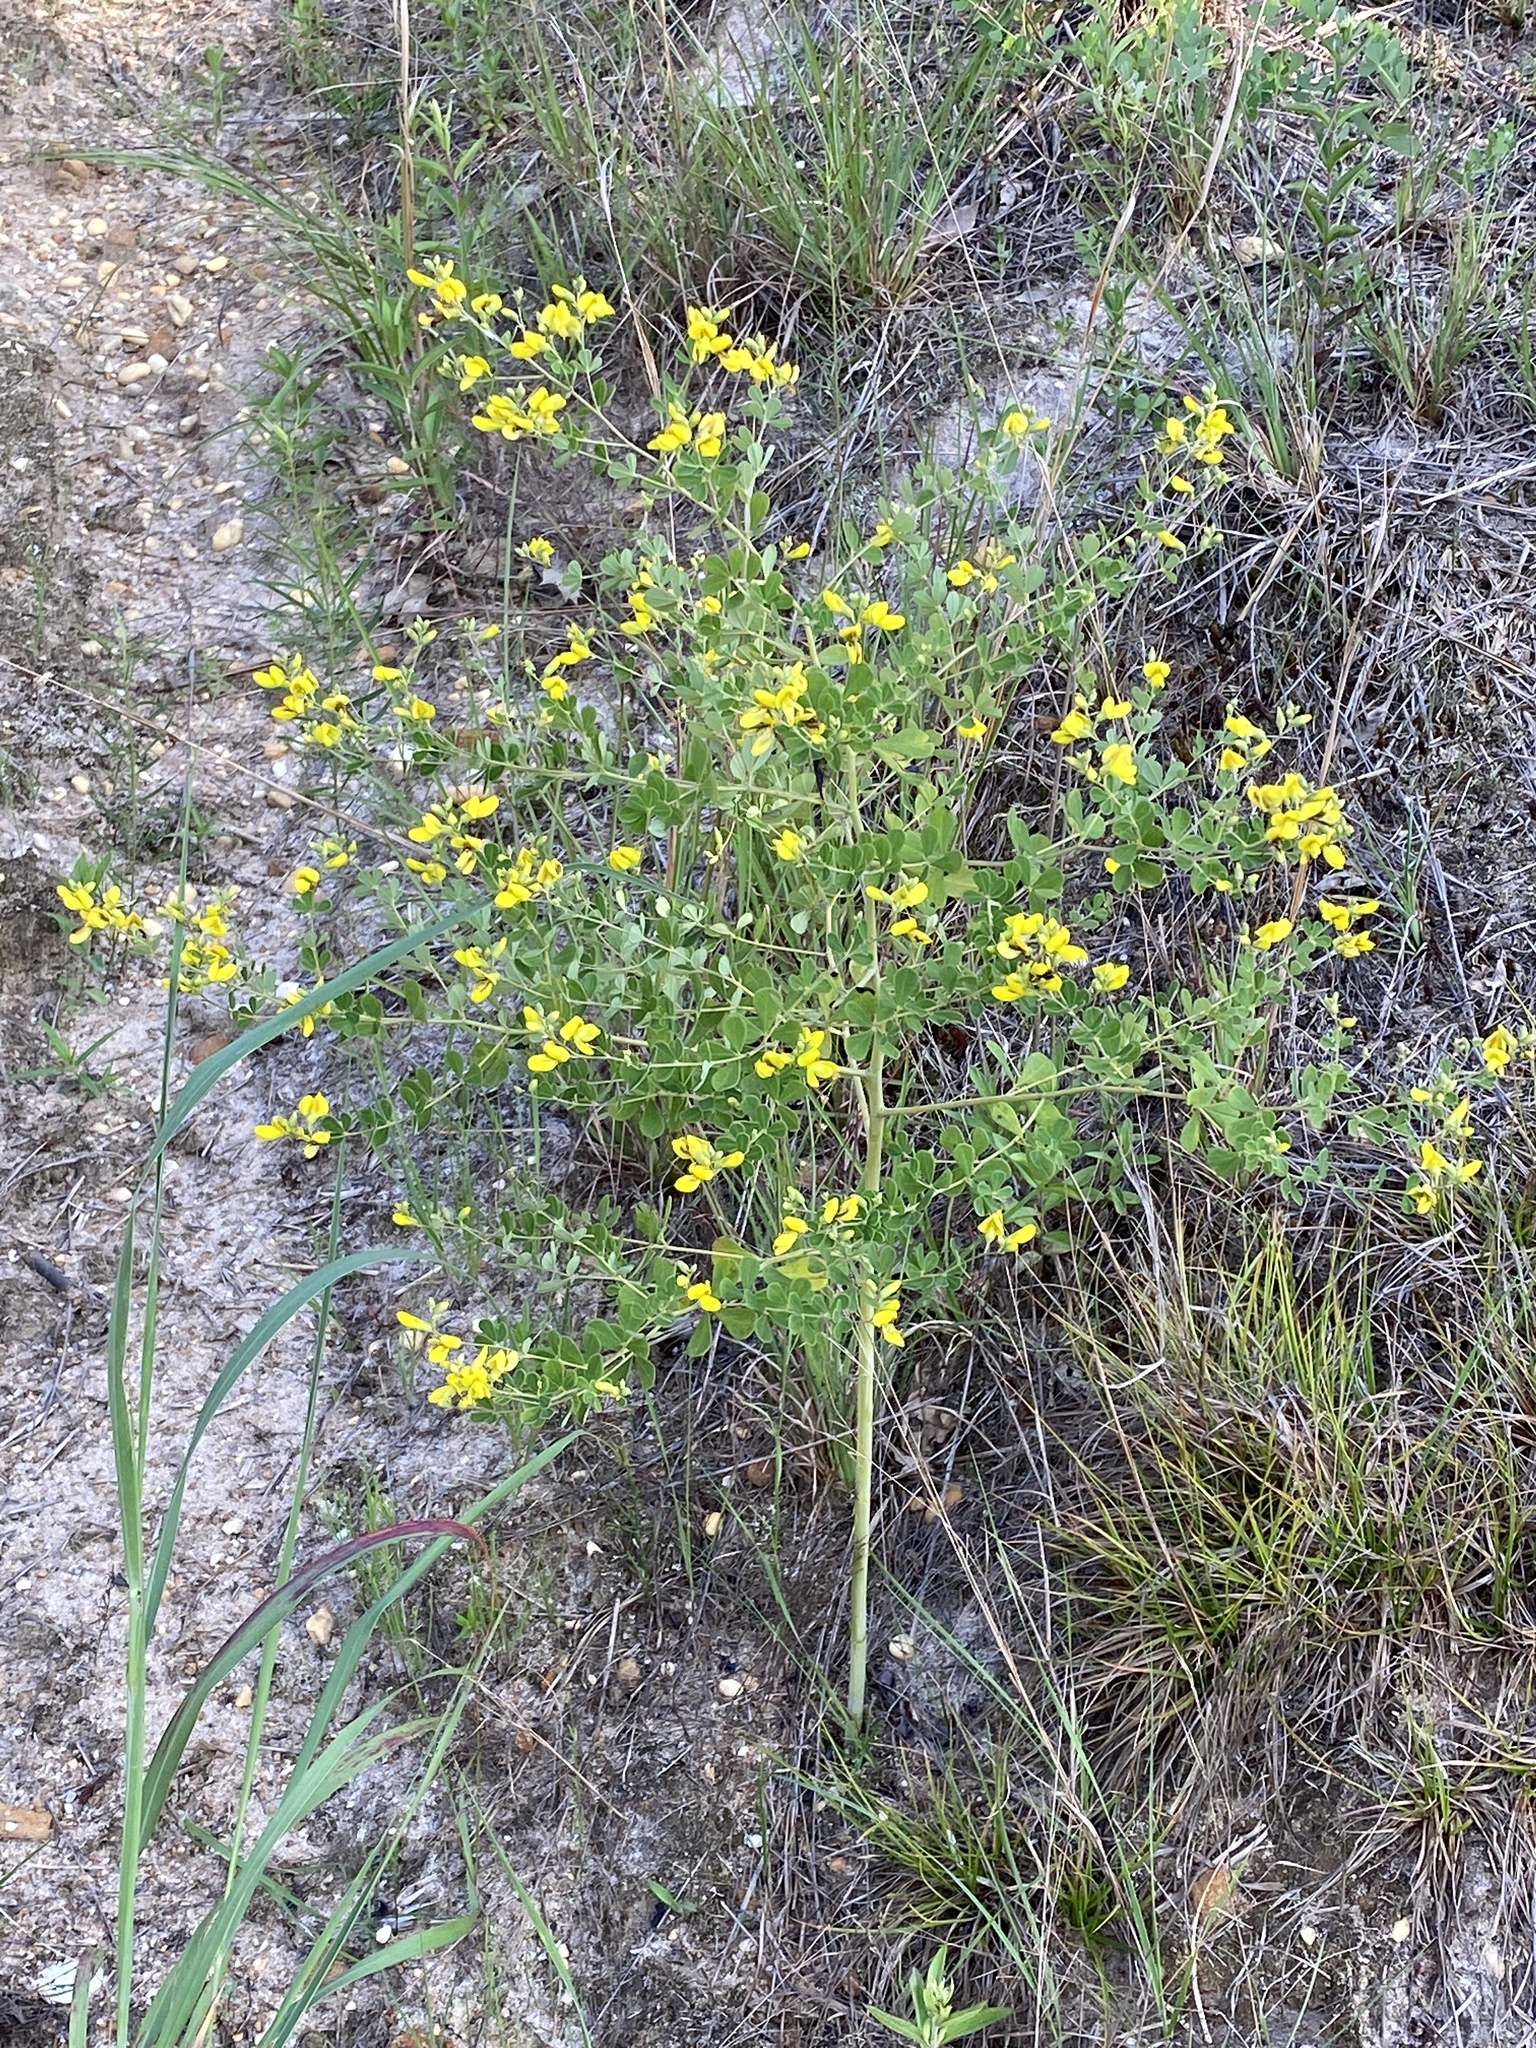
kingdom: Plantae
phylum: Tracheophyta
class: Magnoliopsida
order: Fabales
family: Fabaceae
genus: Baptisia
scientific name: Baptisia tinctoria
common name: Wild indigo
